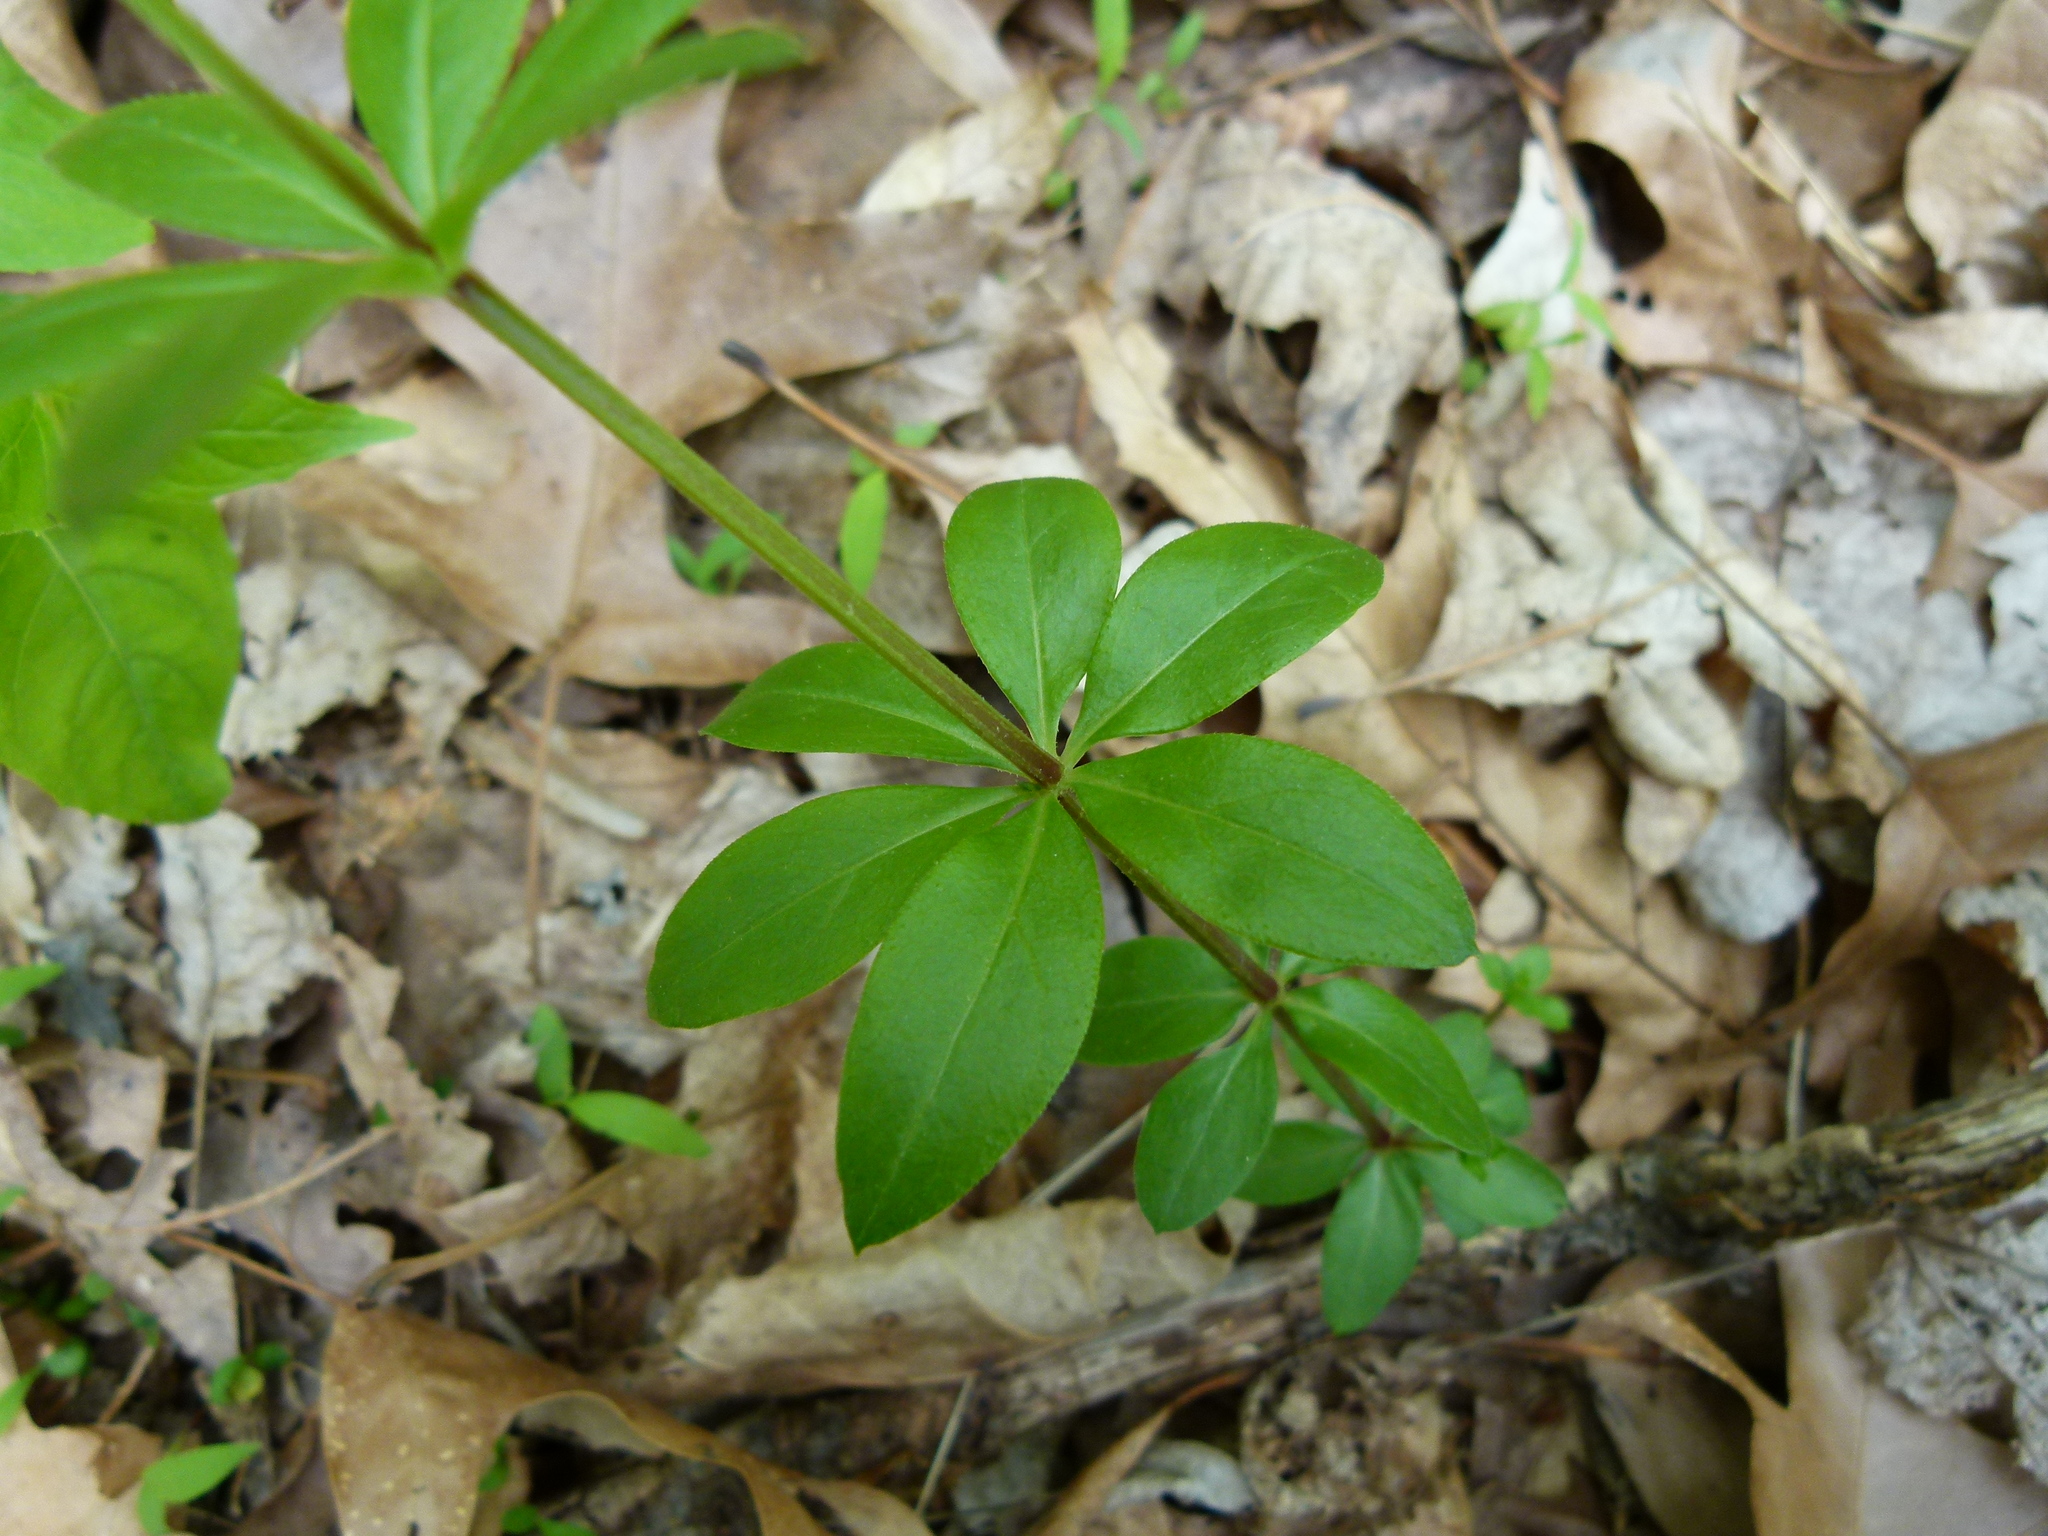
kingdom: Plantae
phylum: Tracheophyta
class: Magnoliopsida
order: Gentianales
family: Rubiaceae
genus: Galium
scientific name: Galium triflorum
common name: Fragrant bedstraw
